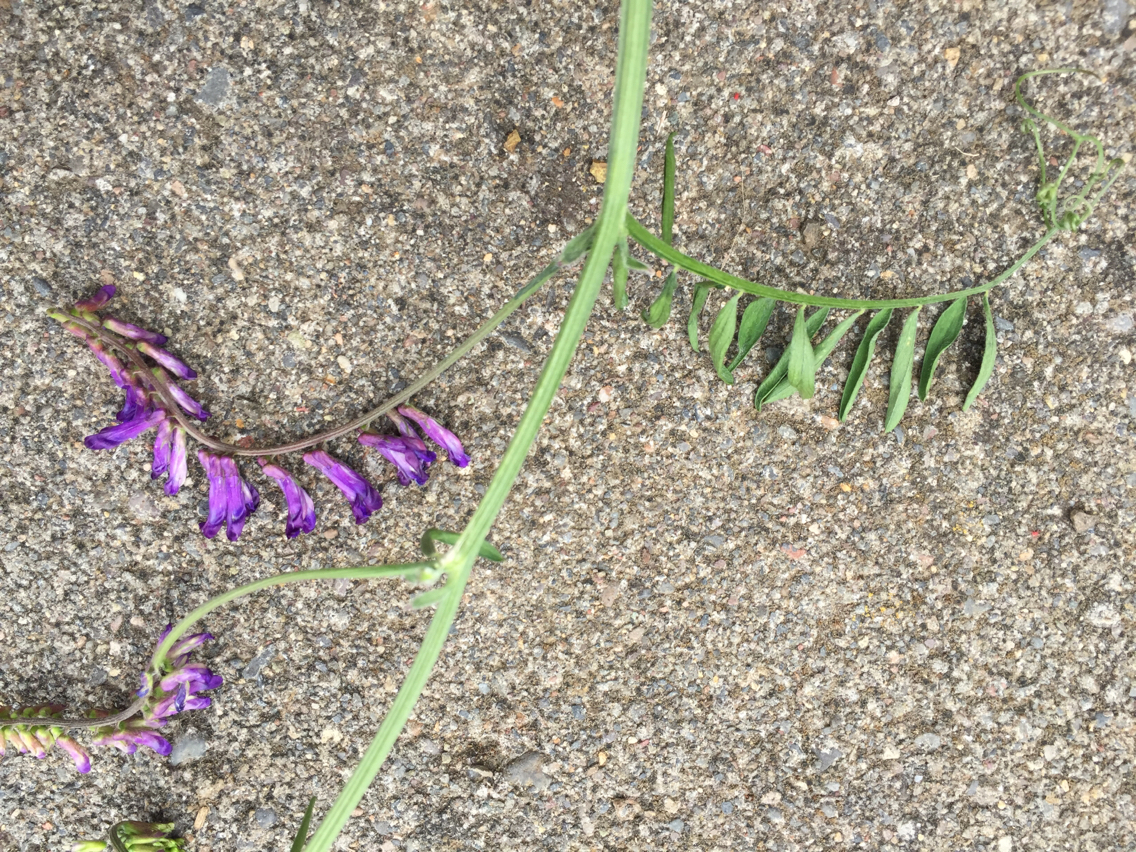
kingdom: Plantae
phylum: Tracheophyta
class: Magnoliopsida
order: Fabales
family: Fabaceae
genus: Vicia
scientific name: Vicia villosa
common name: Fodder vetch
